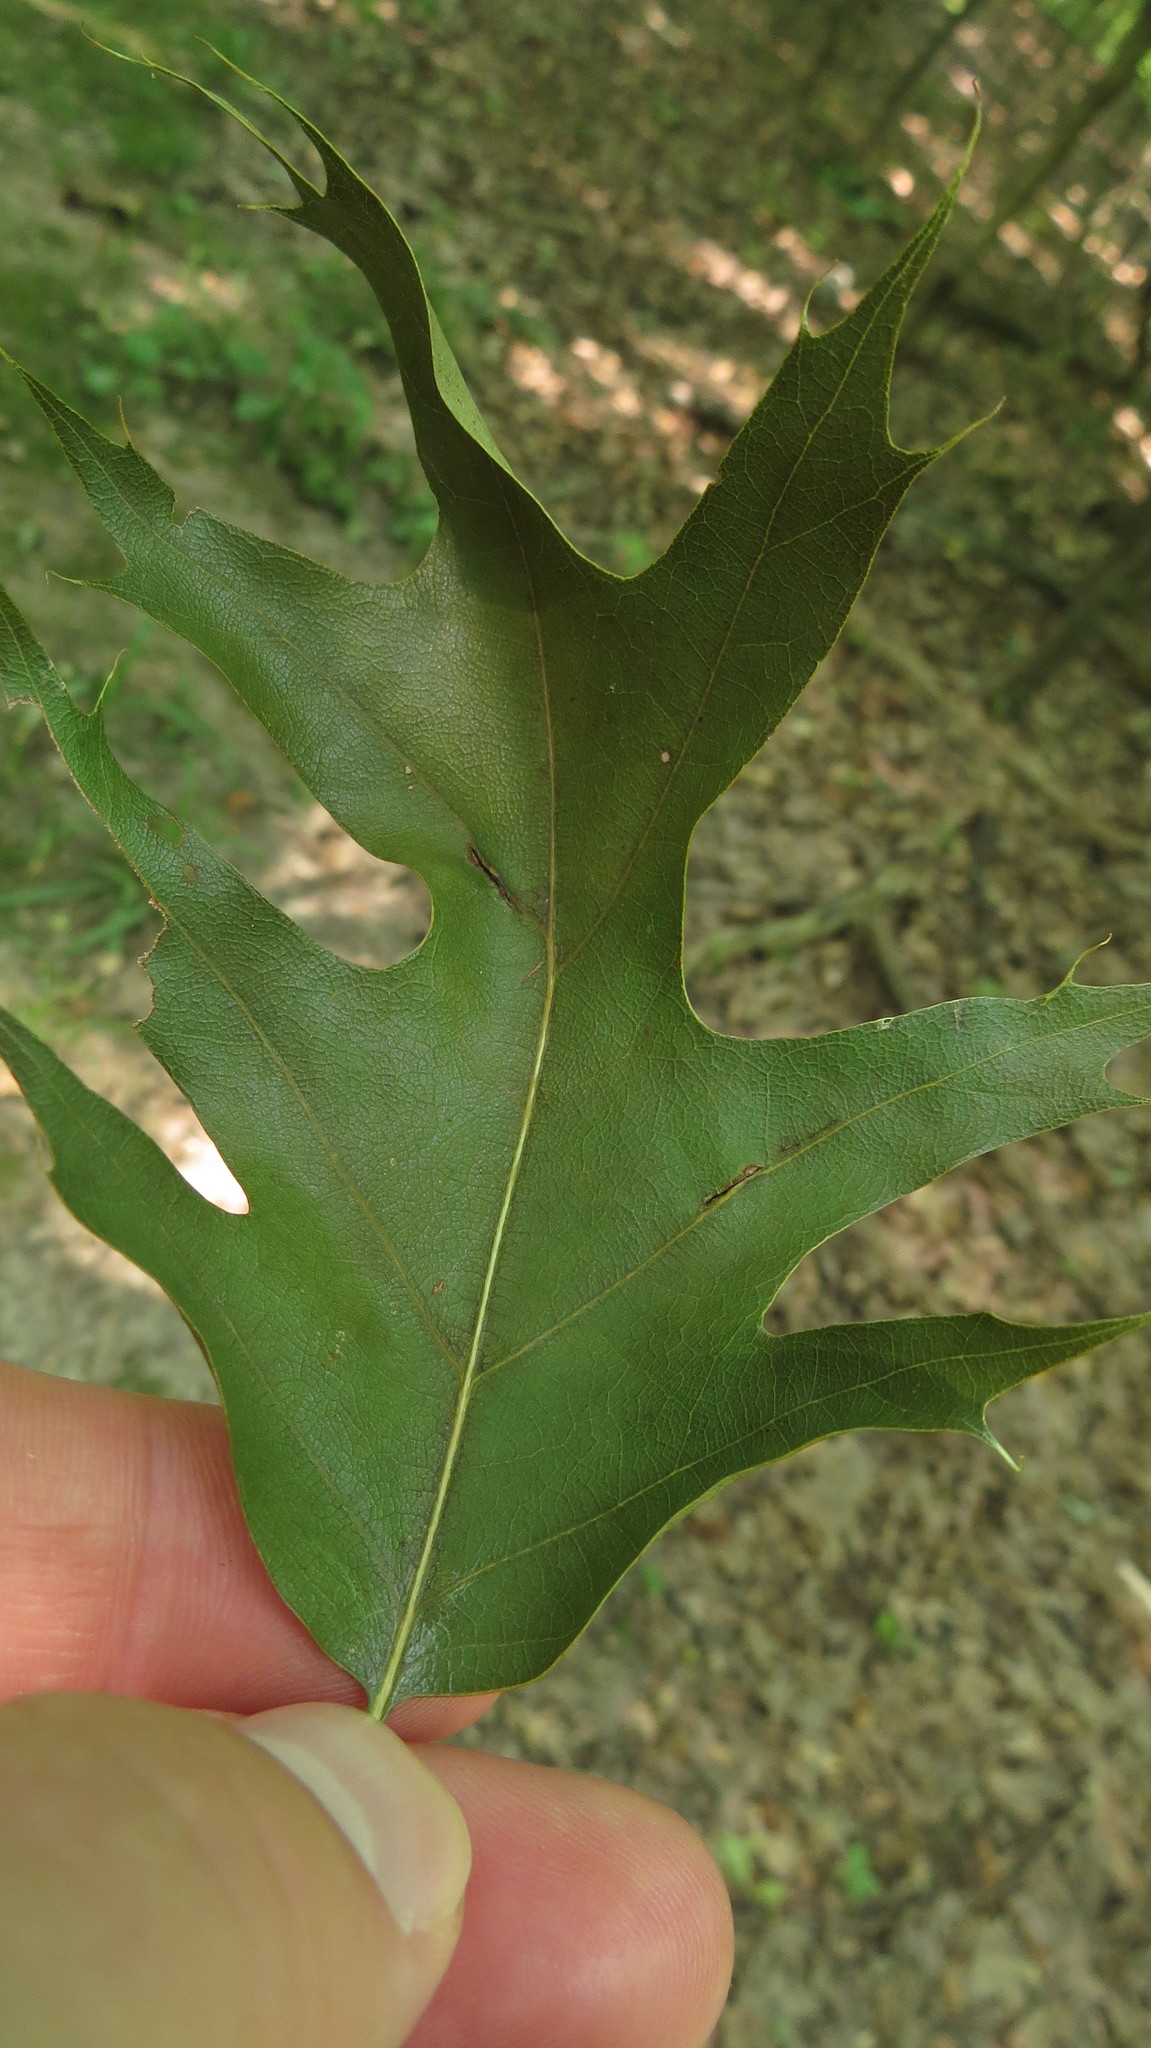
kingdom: Animalia
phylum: Arthropoda
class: Insecta
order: Diptera
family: Cecidomyiidae
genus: Macrodiplosis
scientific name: Macrodiplosis majalis
